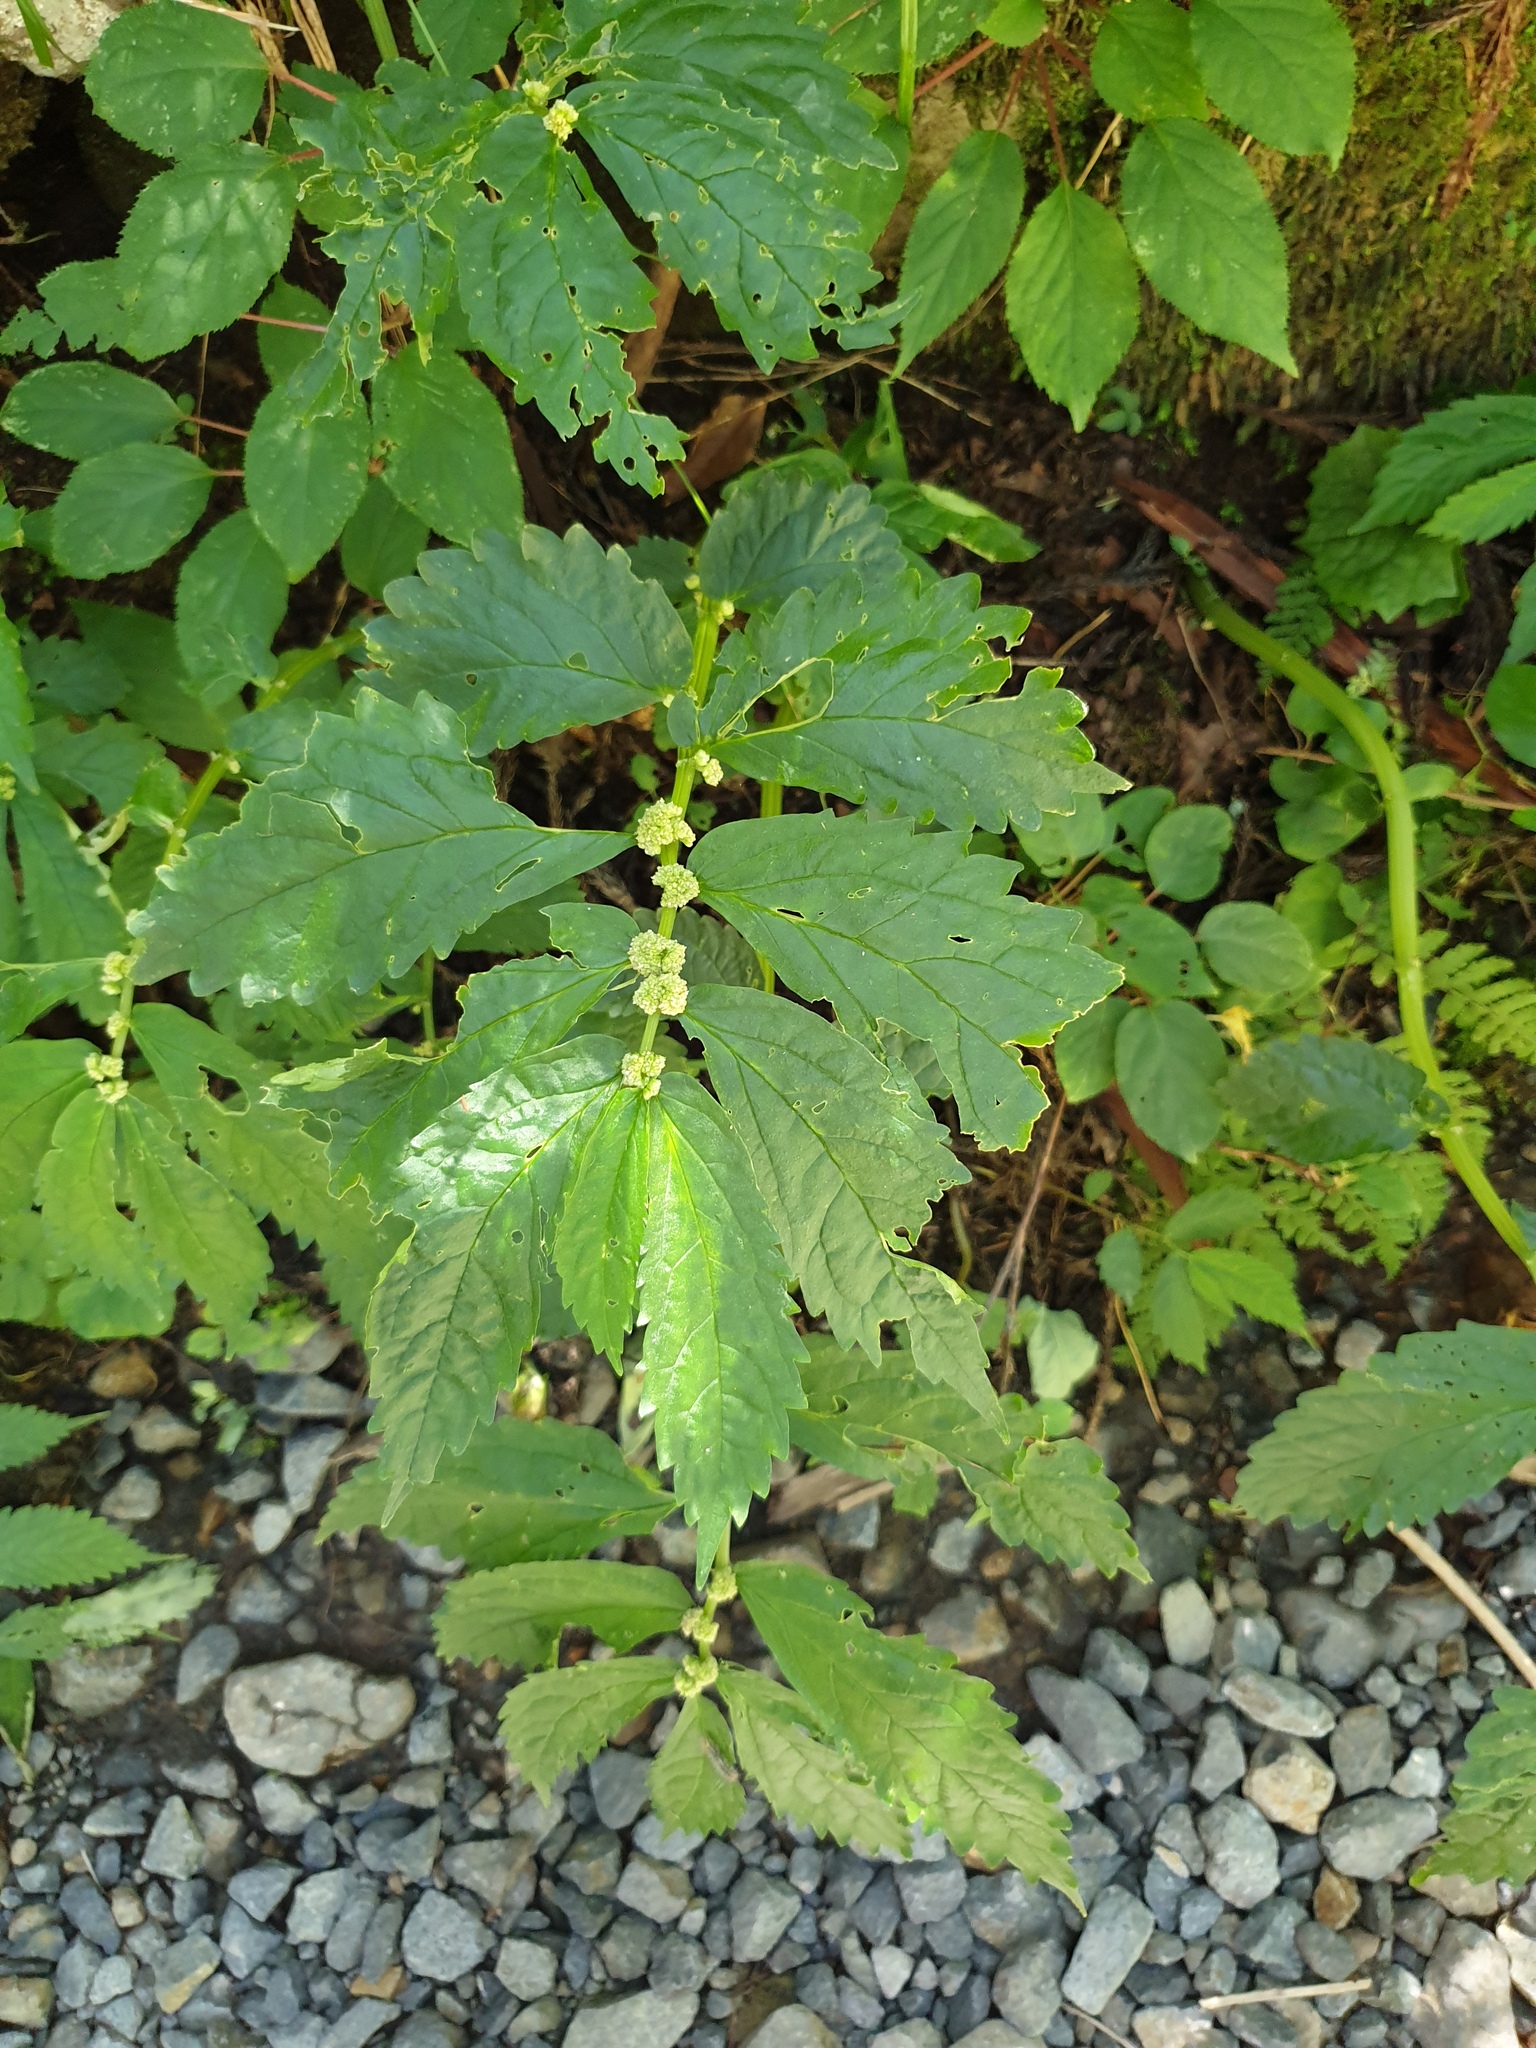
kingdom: Plantae
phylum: Tracheophyta
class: Magnoliopsida
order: Rosales
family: Urticaceae
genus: Elatostema
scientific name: Elatostema involucratum
